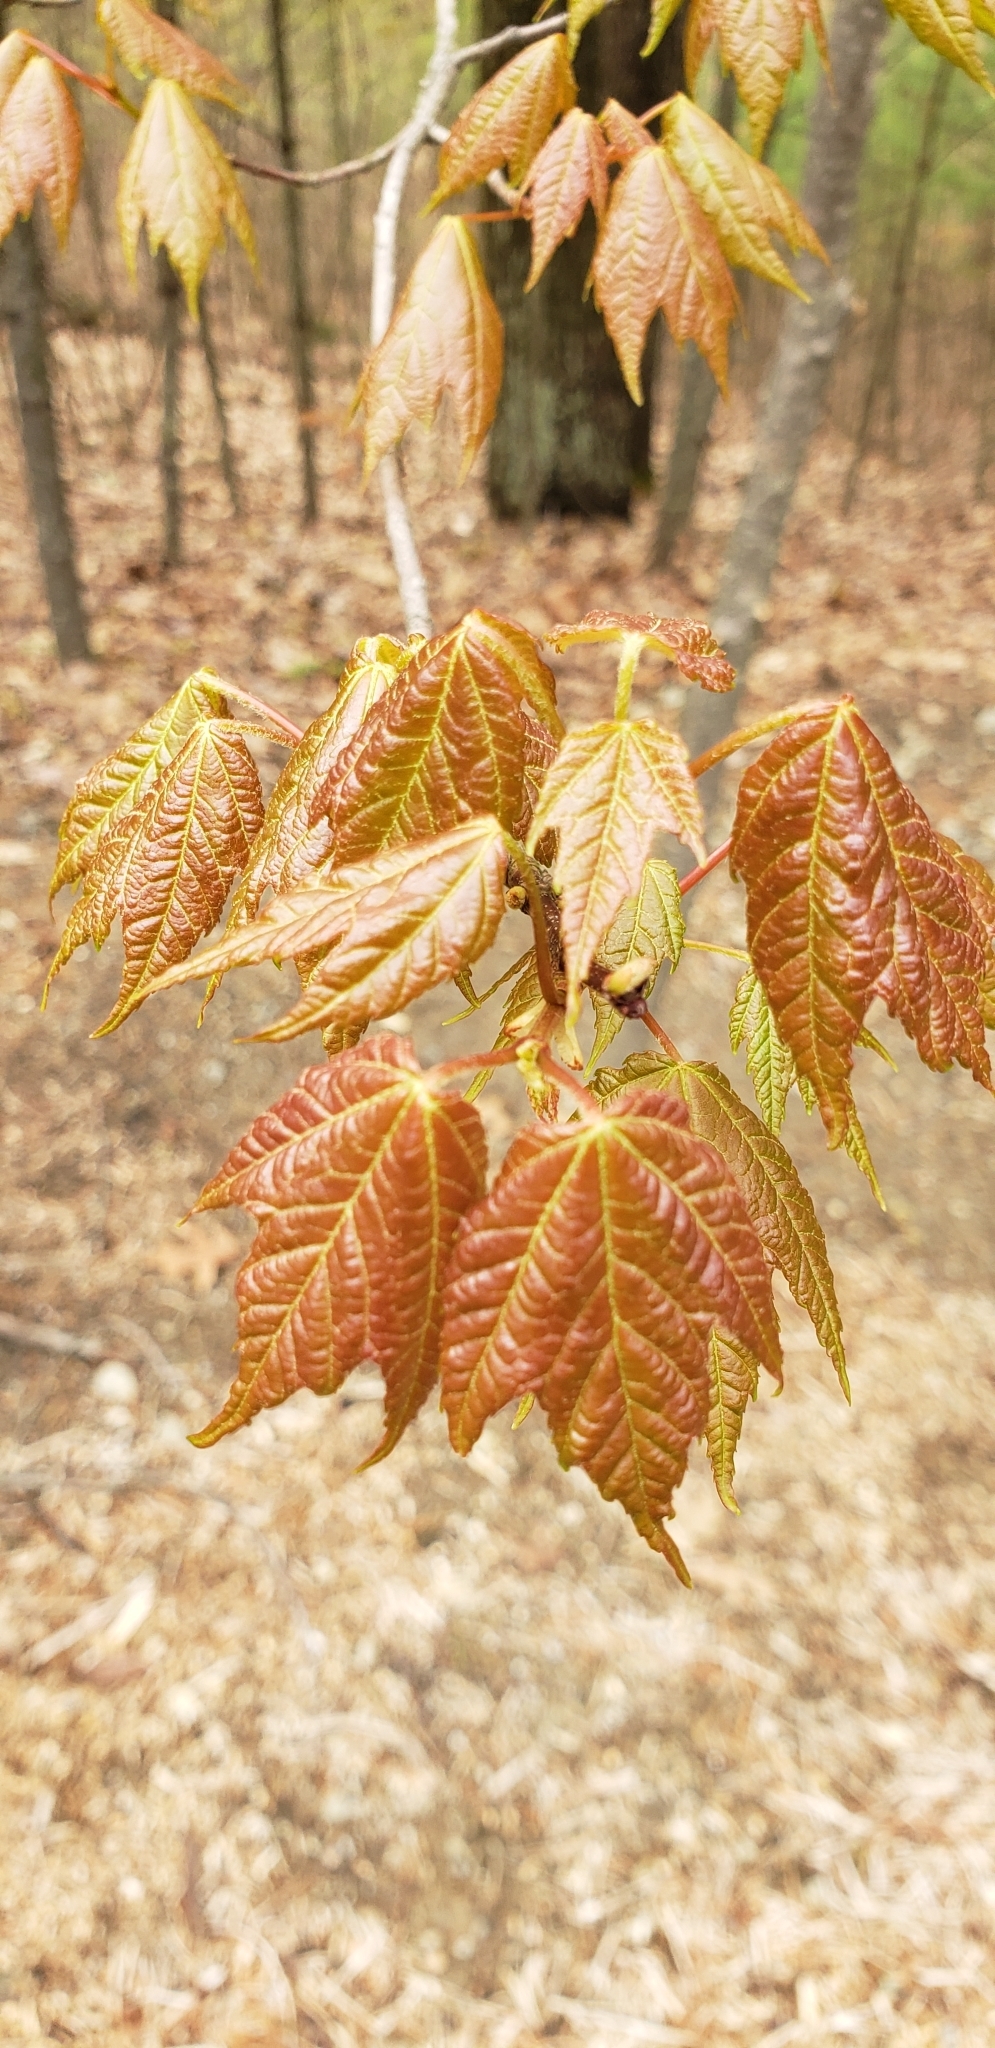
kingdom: Plantae
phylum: Tracheophyta
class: Magnoliopsida
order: Sapindales
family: Sapindaceae
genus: Acer
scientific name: Acer rubrum
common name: Red maple
